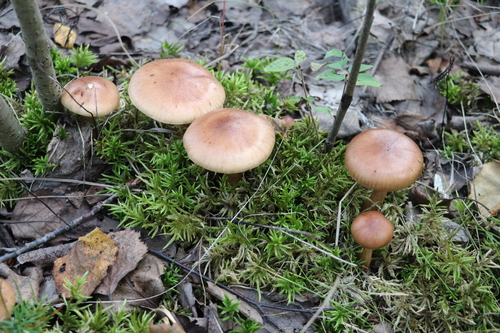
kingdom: Fungi
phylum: Basidiomycota
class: Agaricomycetes
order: Agaricales
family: Tricholomataceae
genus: Tricholoma
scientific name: Tricholoma fulvum
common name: Birch knight
